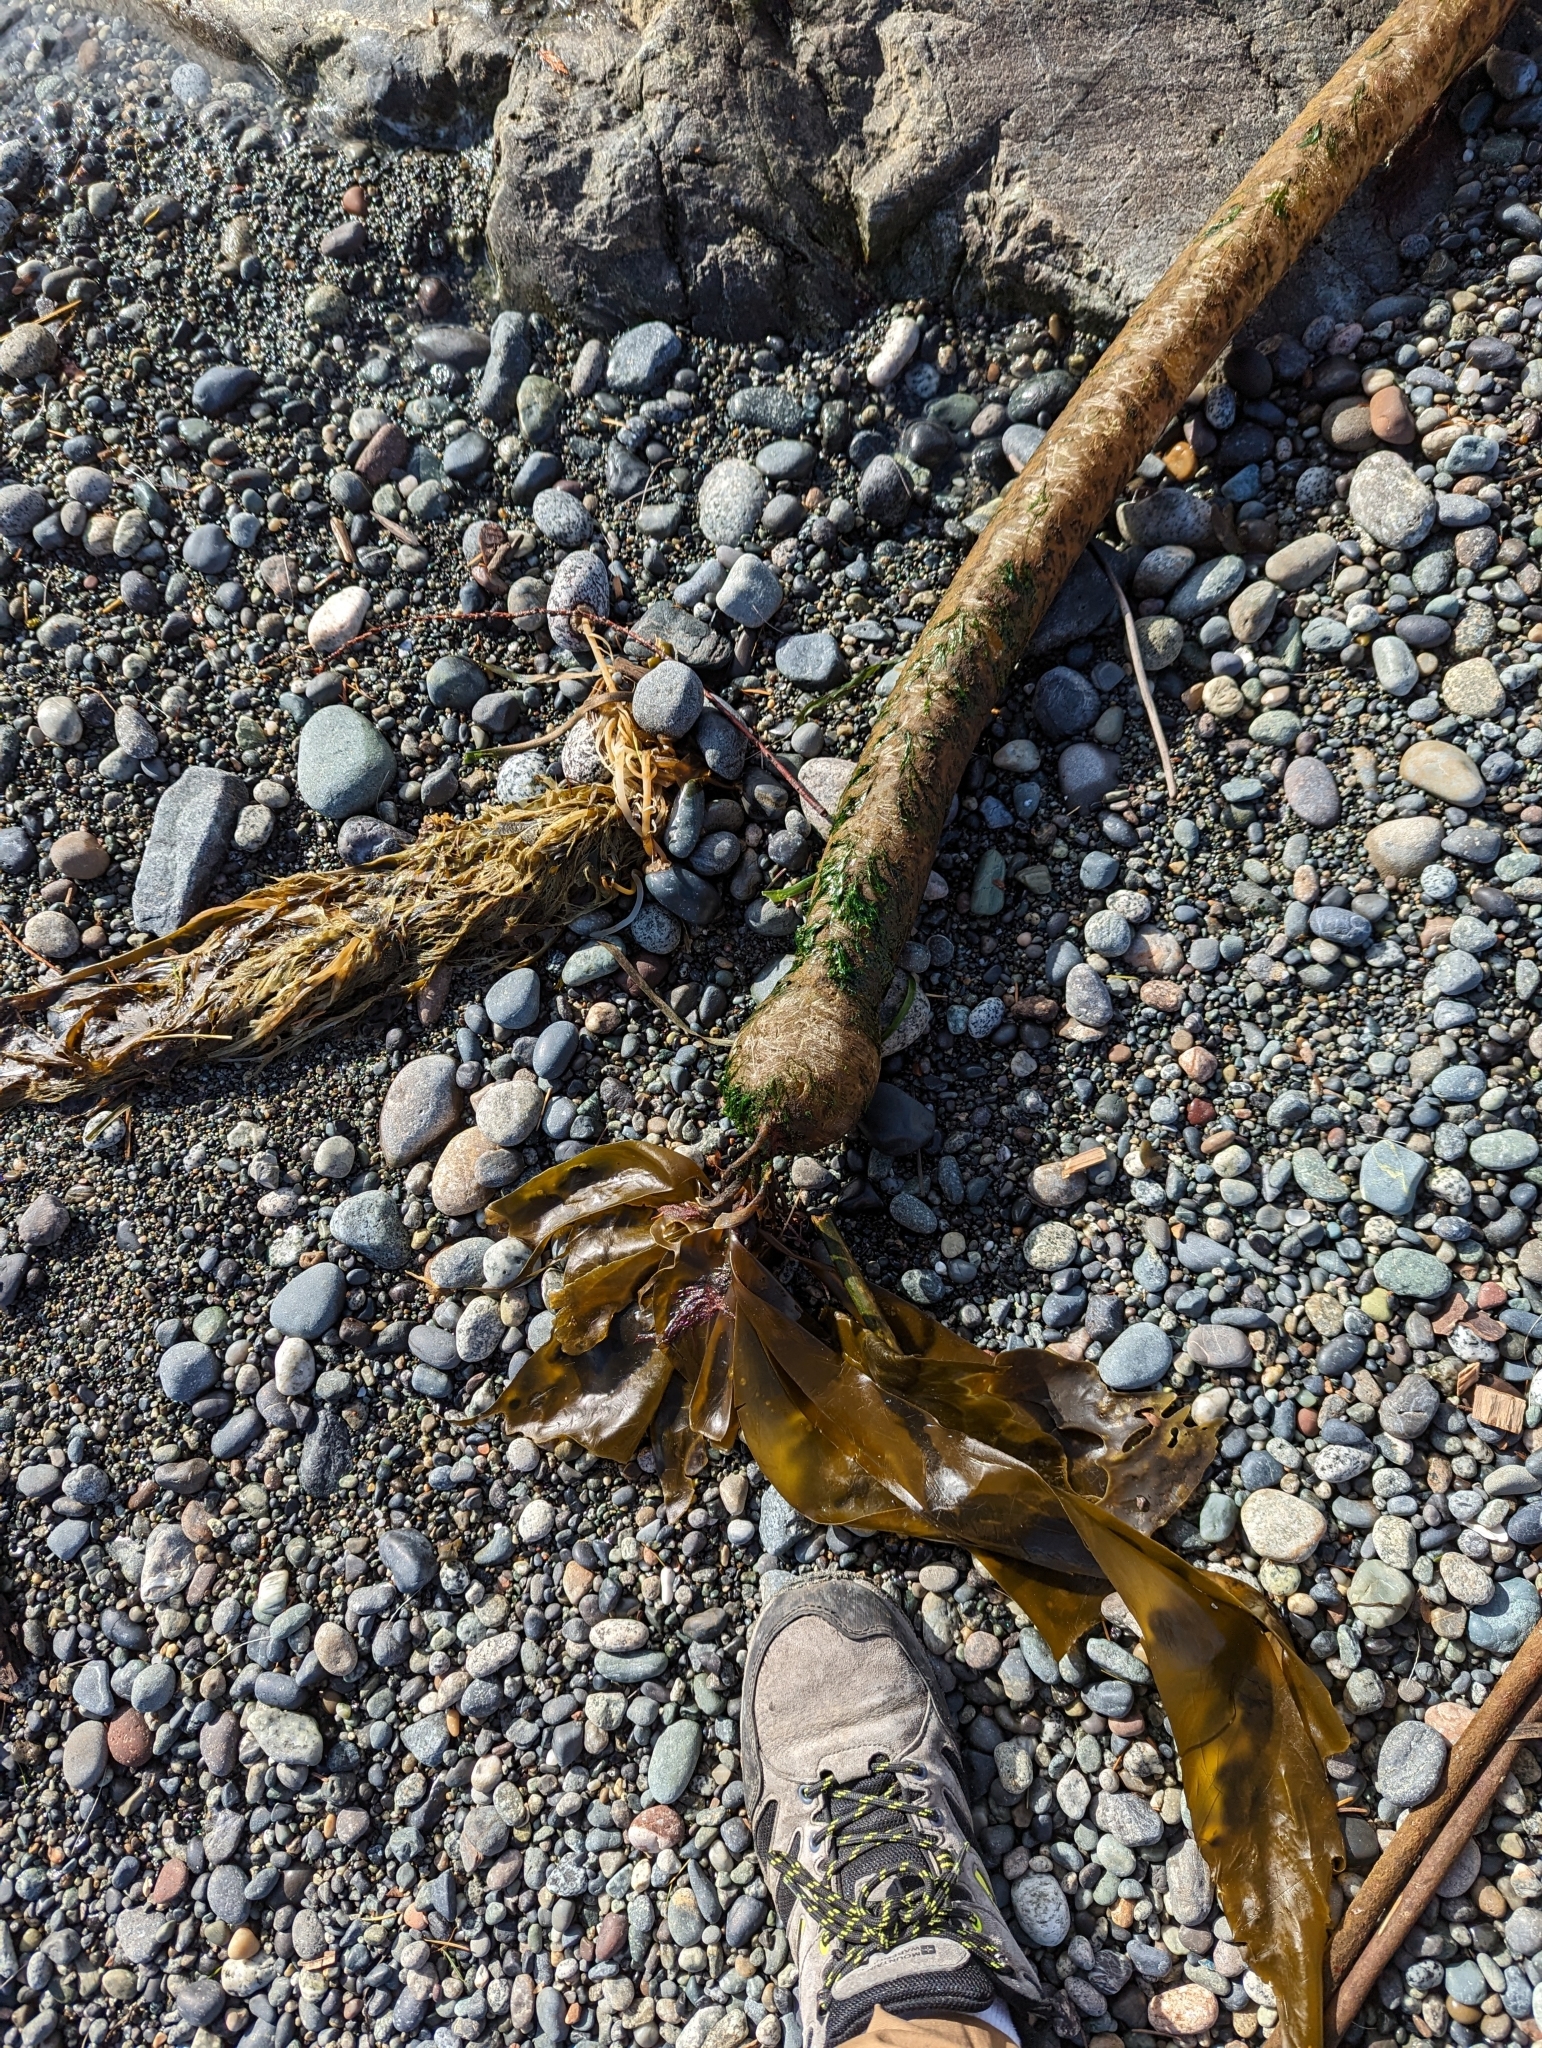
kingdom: Chromista
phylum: Ochrophyta
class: Phaeophyceae
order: Laminariales
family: Laminariaceae
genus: Nereocystis
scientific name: Nereocystis luetkeana
